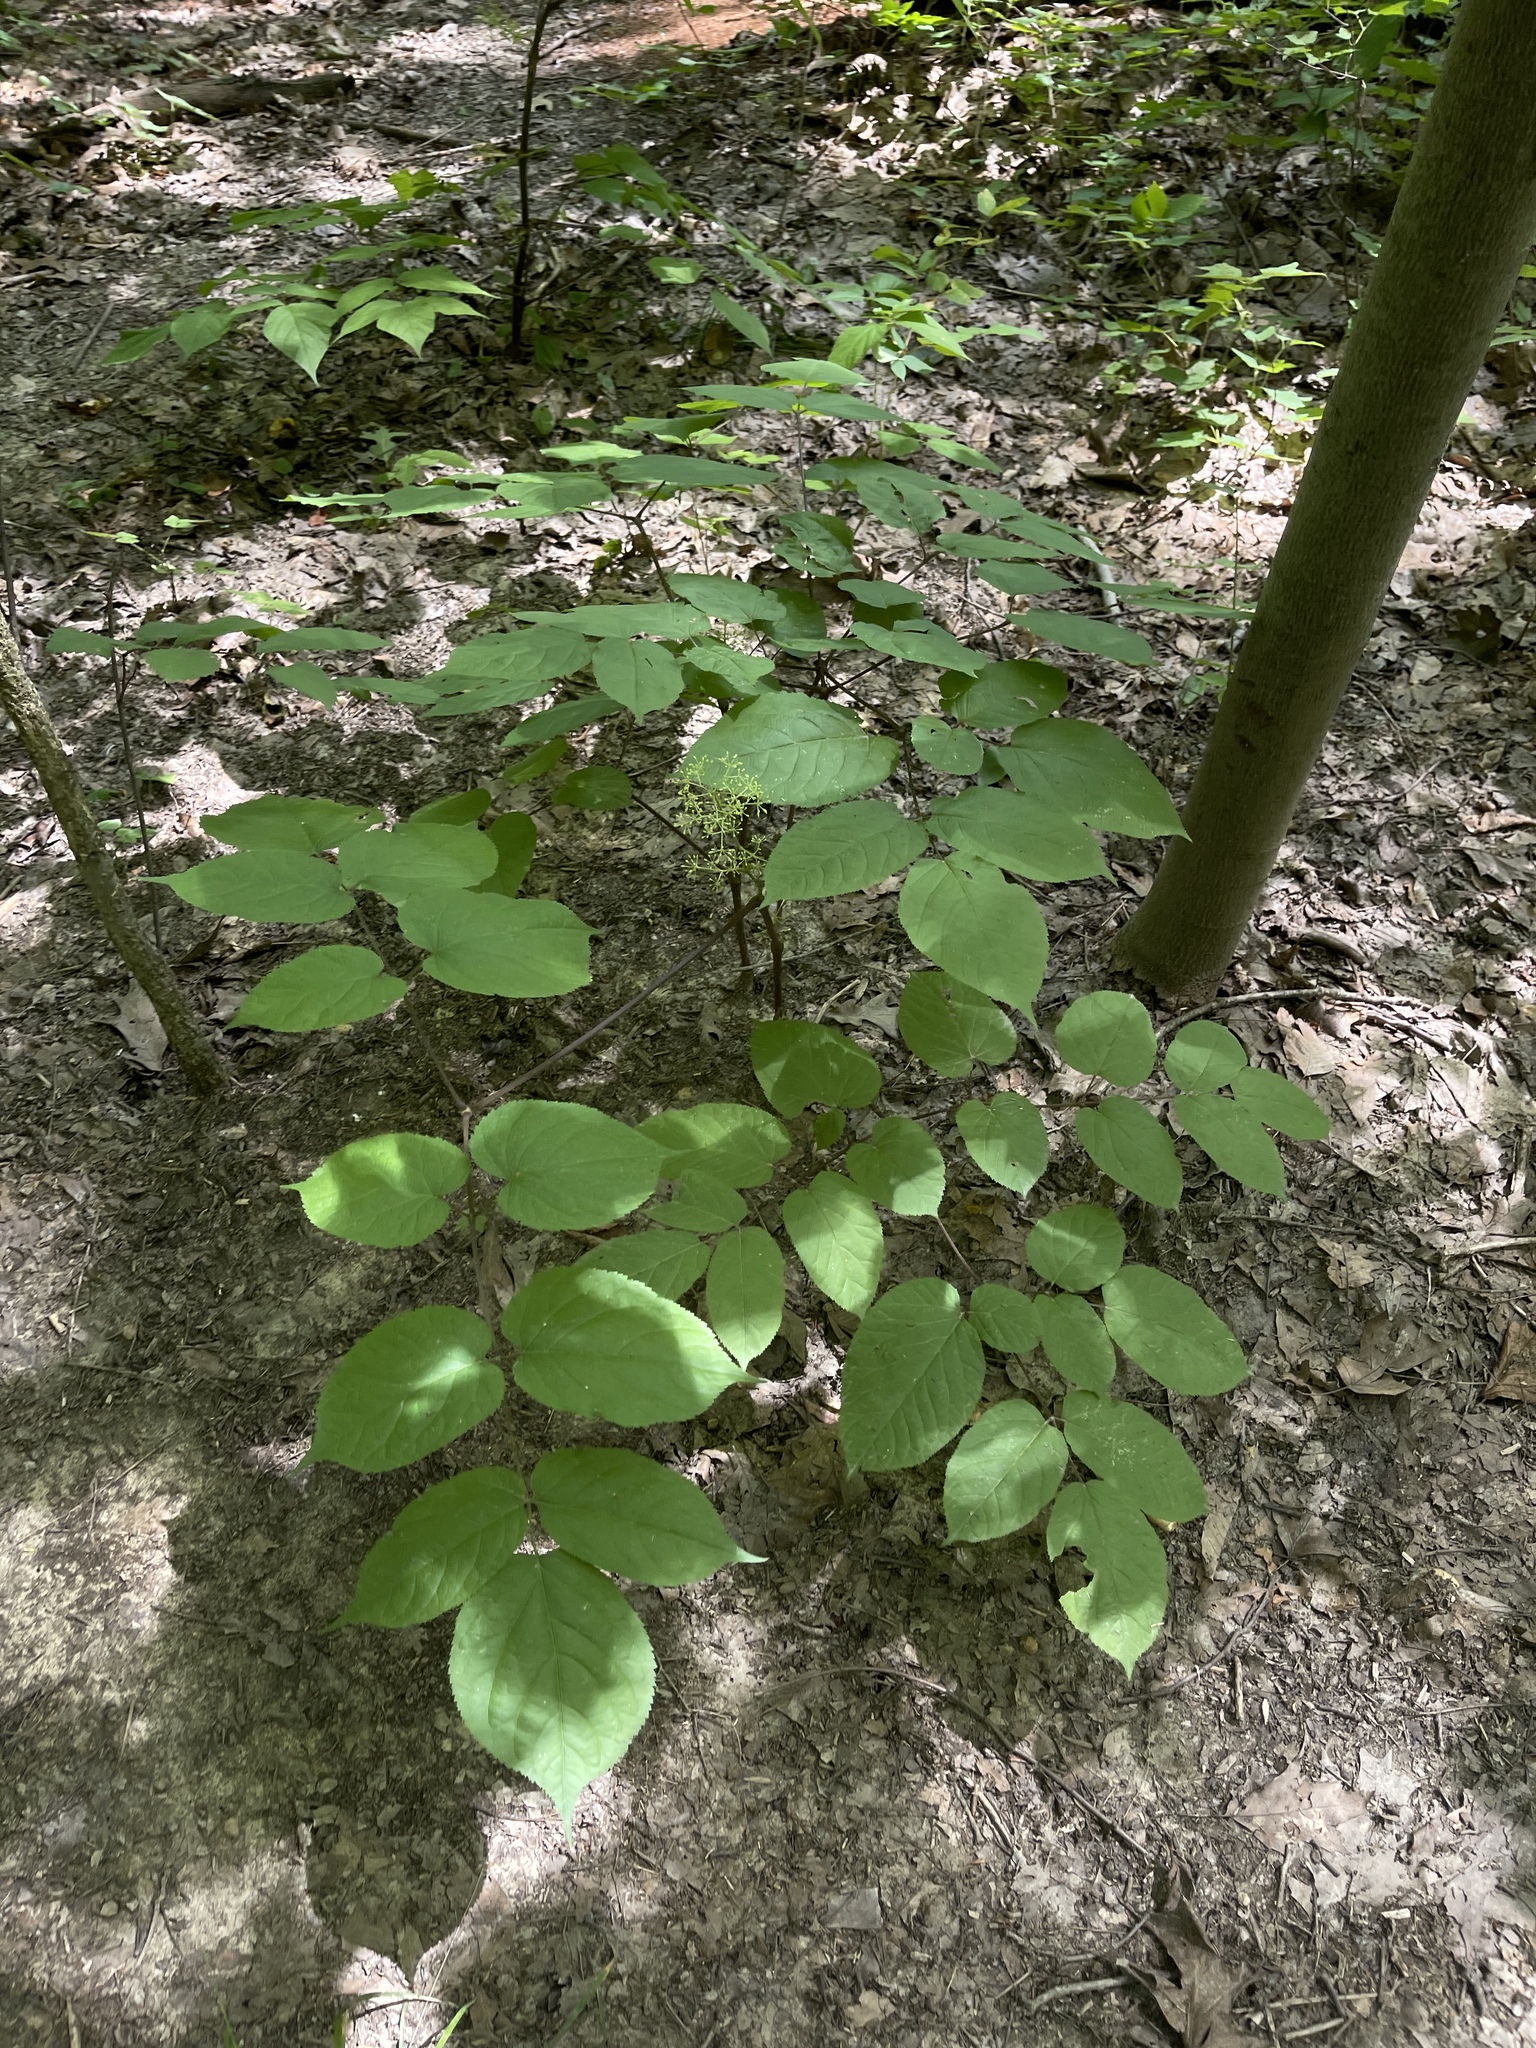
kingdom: Plantae
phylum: Tracheophyta
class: Magnoliopsida
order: Apiales
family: Araliaceae
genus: Aralia
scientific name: Aralia racemosa
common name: American-spikenard
